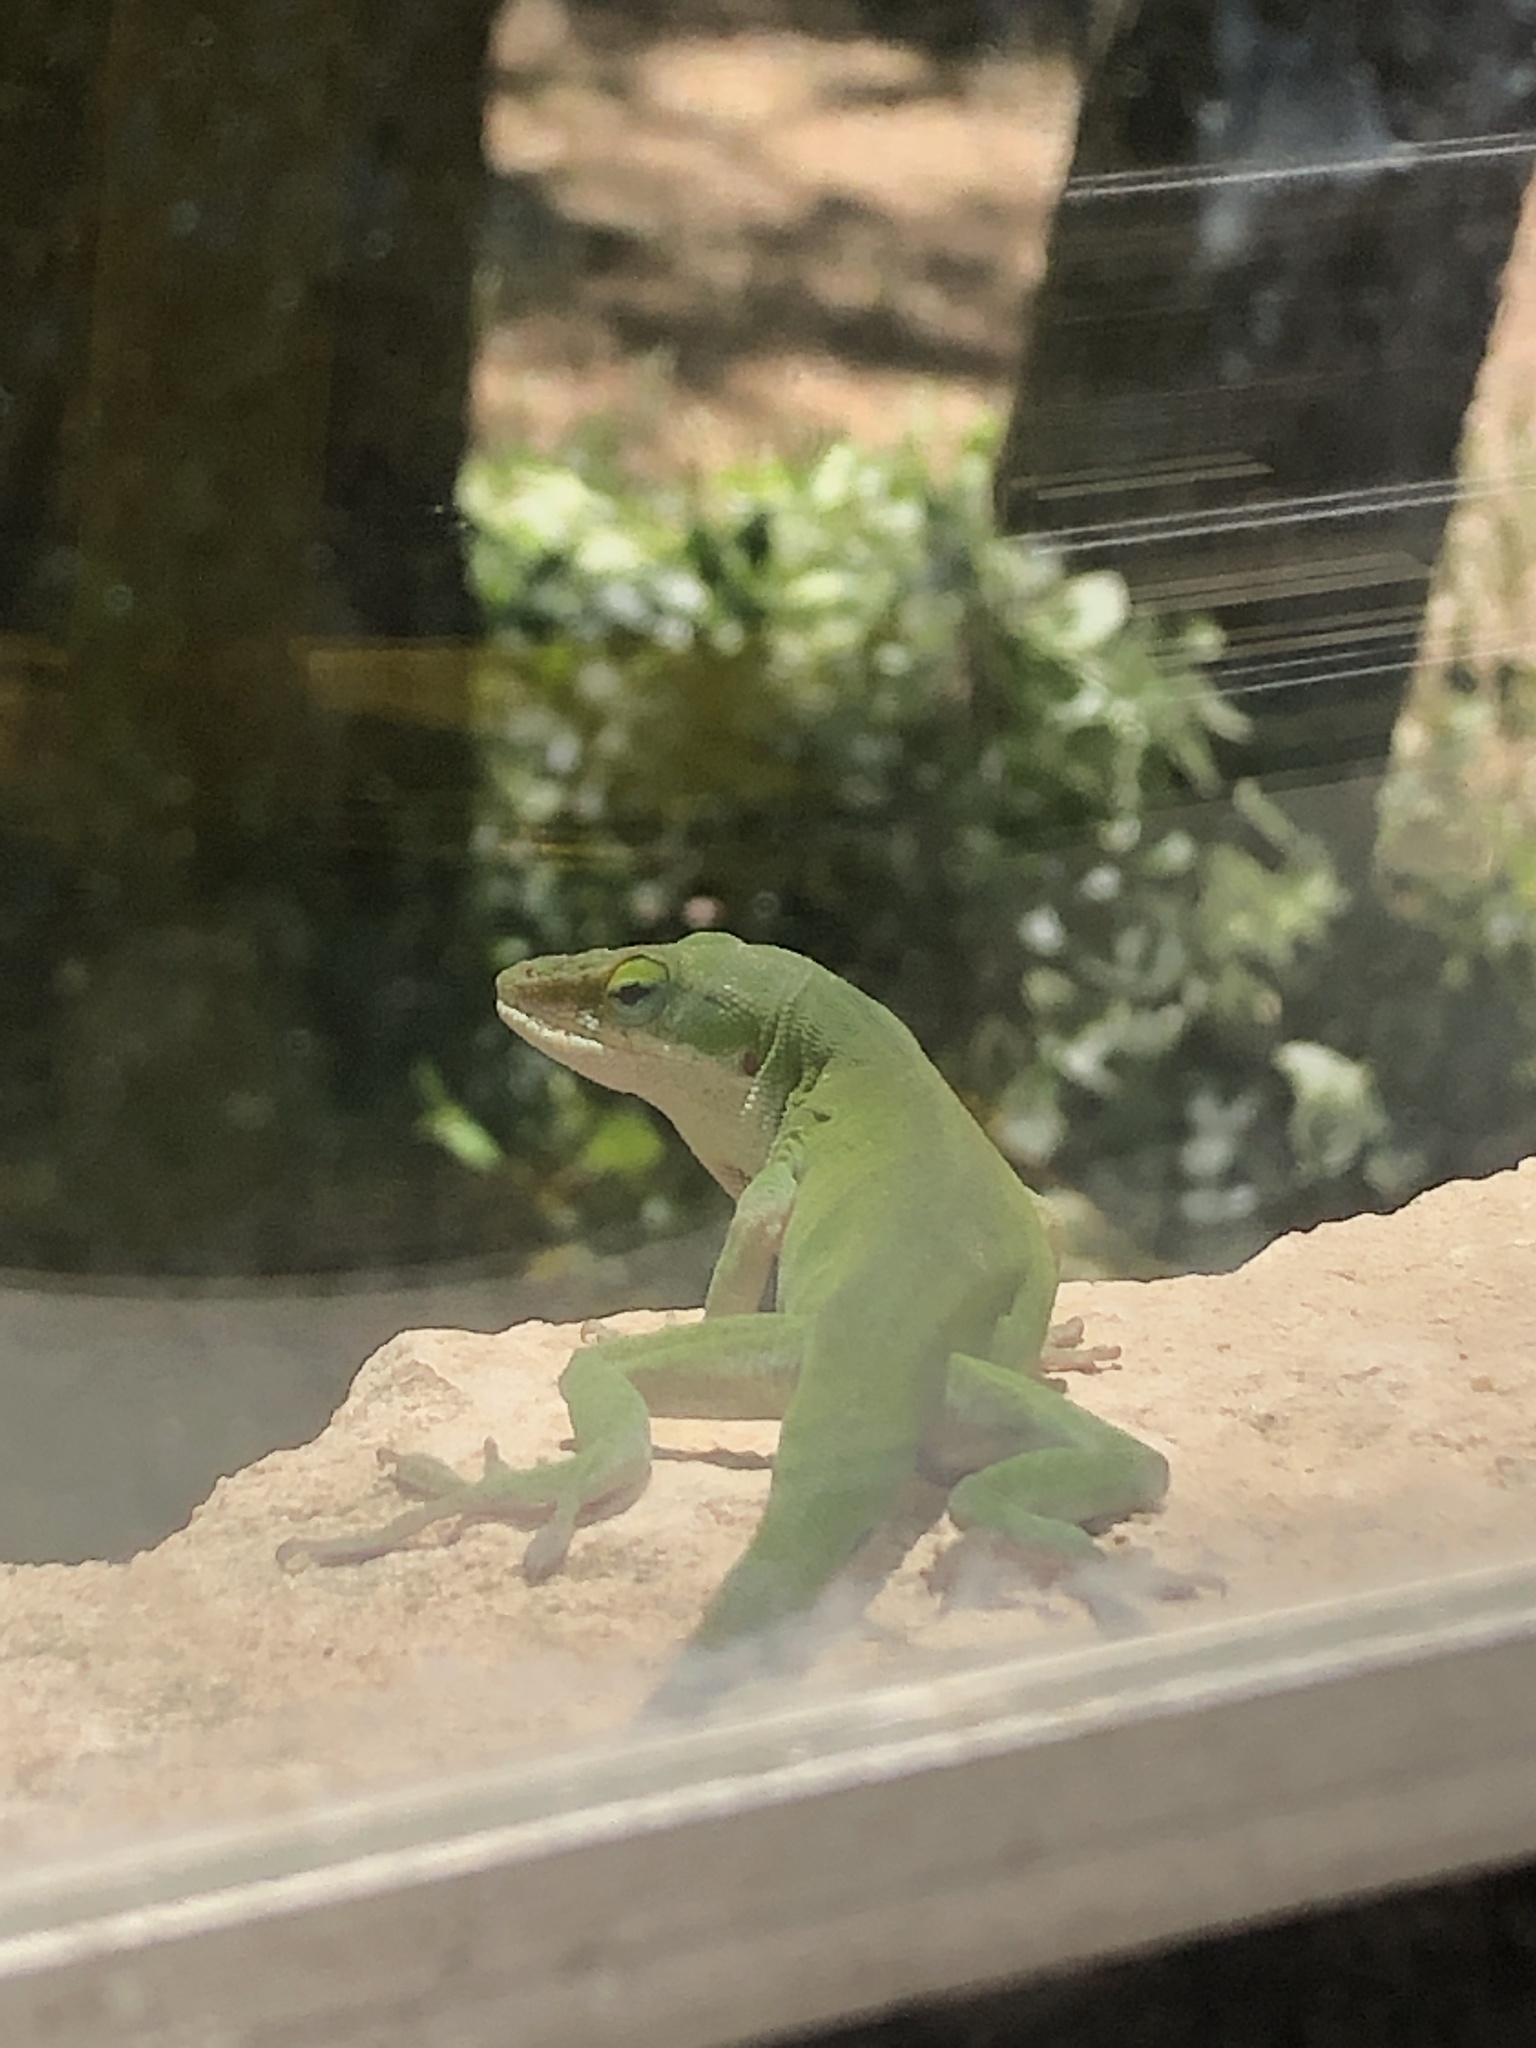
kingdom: Animalia
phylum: Chordata
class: Squamata
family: Dactyloidae
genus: Anolis
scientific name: Anolis carolinensis
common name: Green anole
